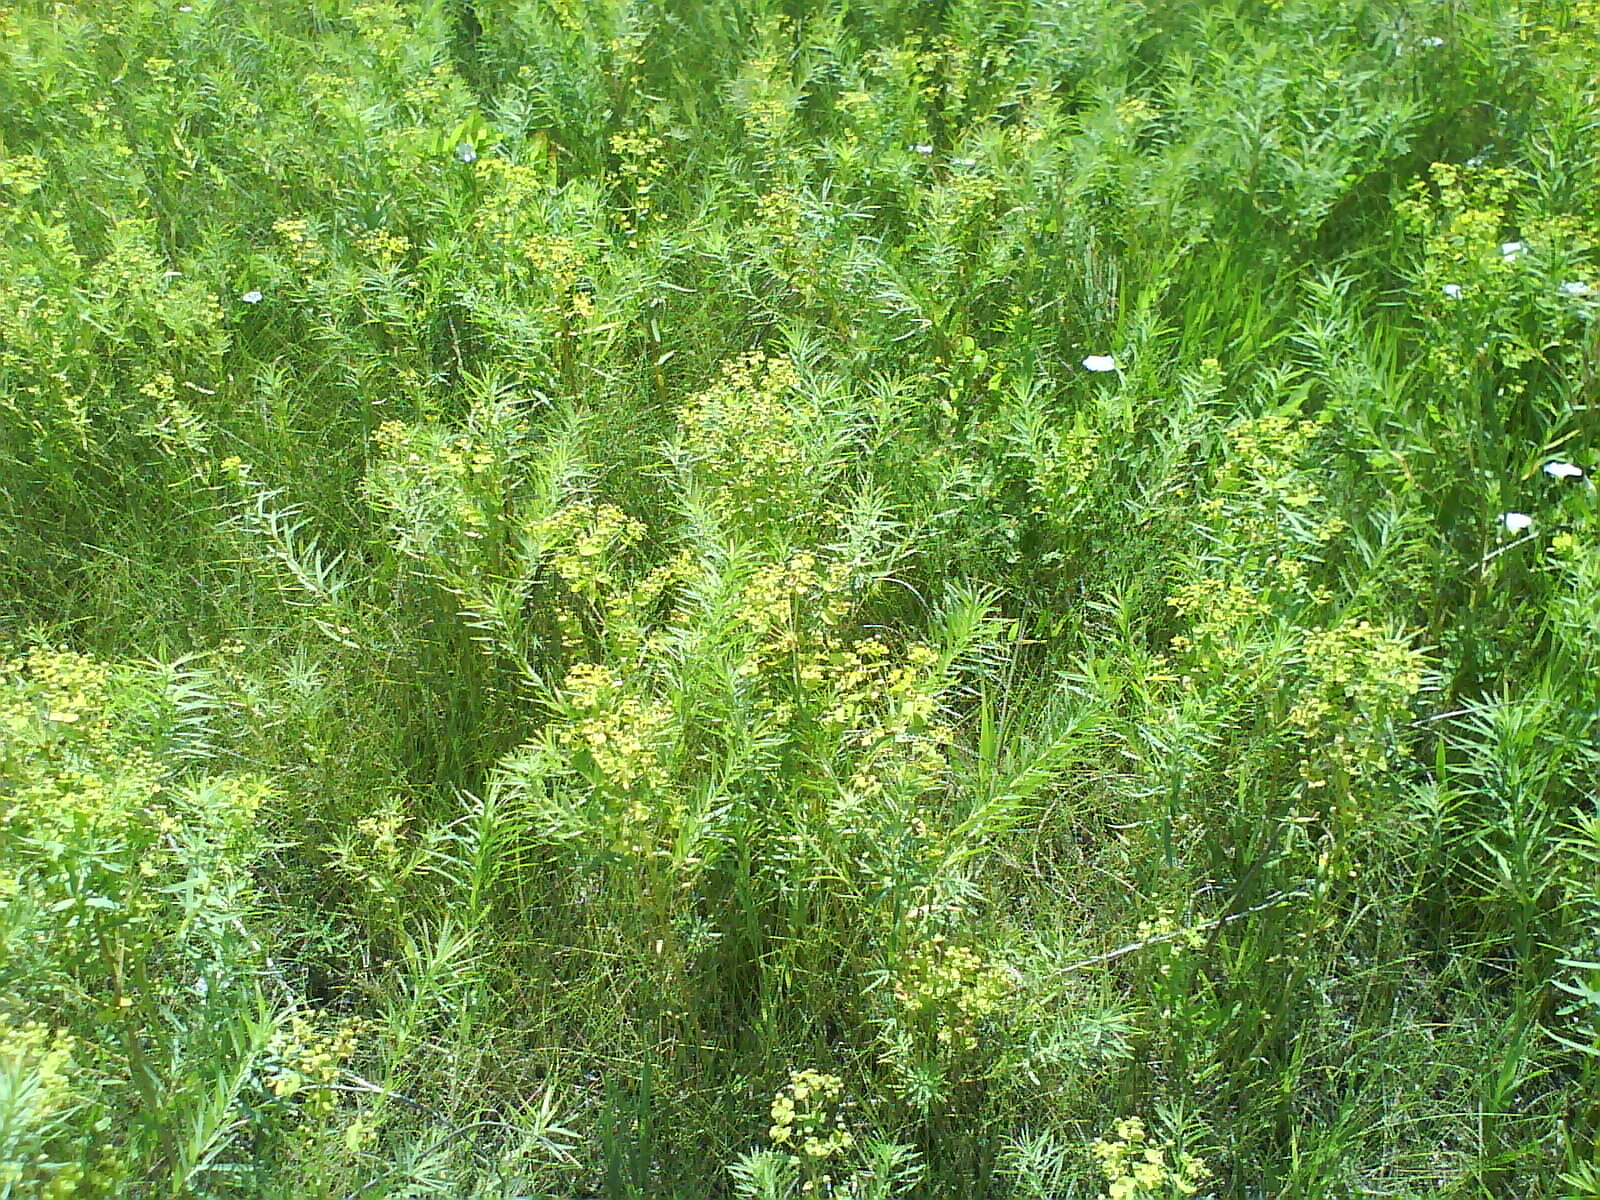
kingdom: Plantae
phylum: Tracheophyta
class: Magnoliopsida
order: Malpighiales
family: Euphorbiaceae
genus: Euphorbia
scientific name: Euphorbia virgata
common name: Leafy spurge
